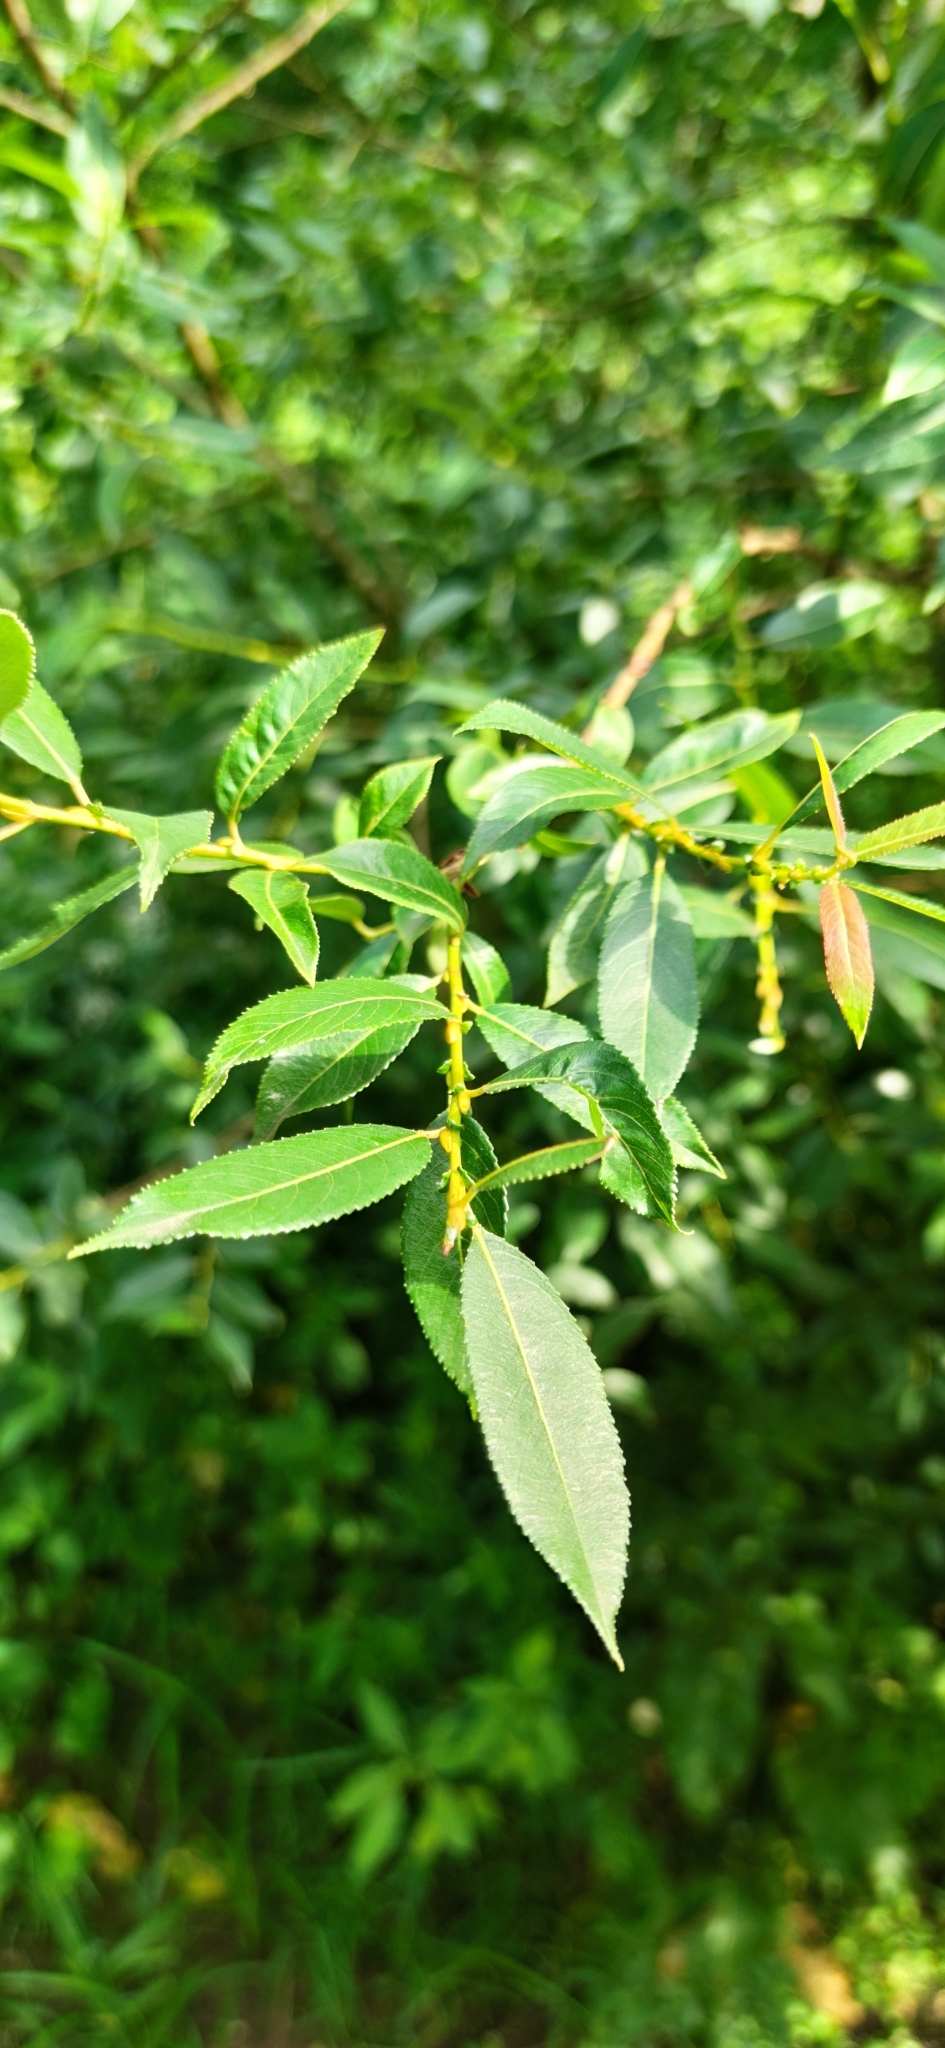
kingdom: Plantae
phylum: Tracheophyta
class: Magnoliopsida
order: Malpighiales
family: Salicaceae
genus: Salix
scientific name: Salix triandra
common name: Almond willow
